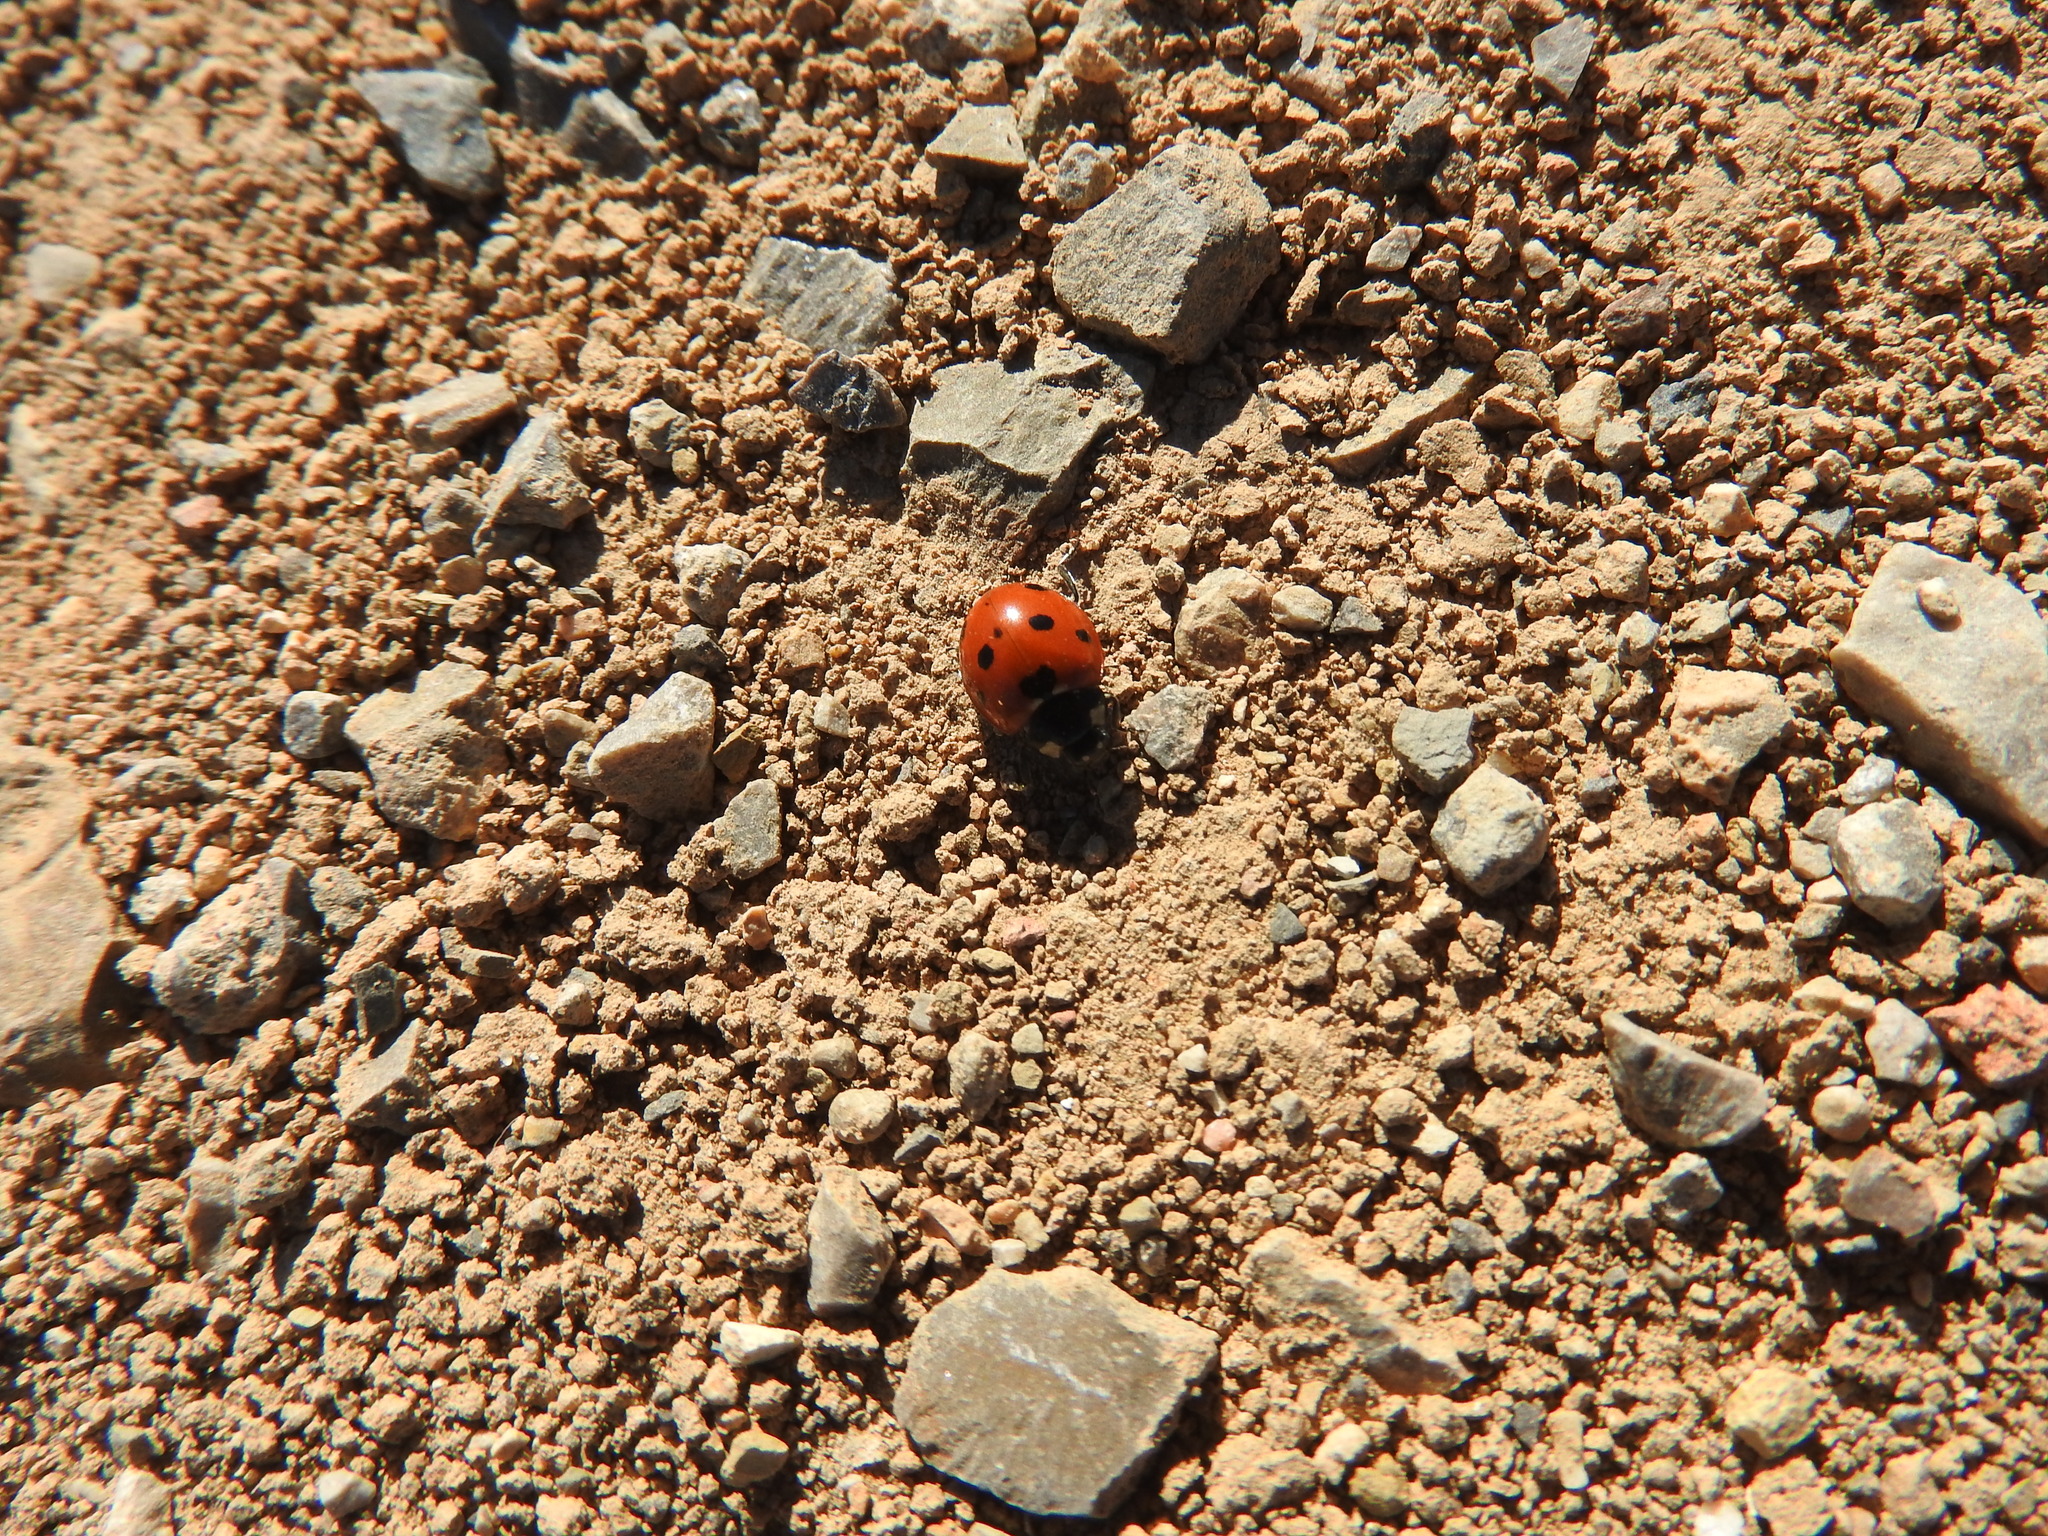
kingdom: Animalia
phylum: Arthropoda
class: Insecta
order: Coleoptera
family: Coccinellidae
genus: Coccinella
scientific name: Coccinella algerica
